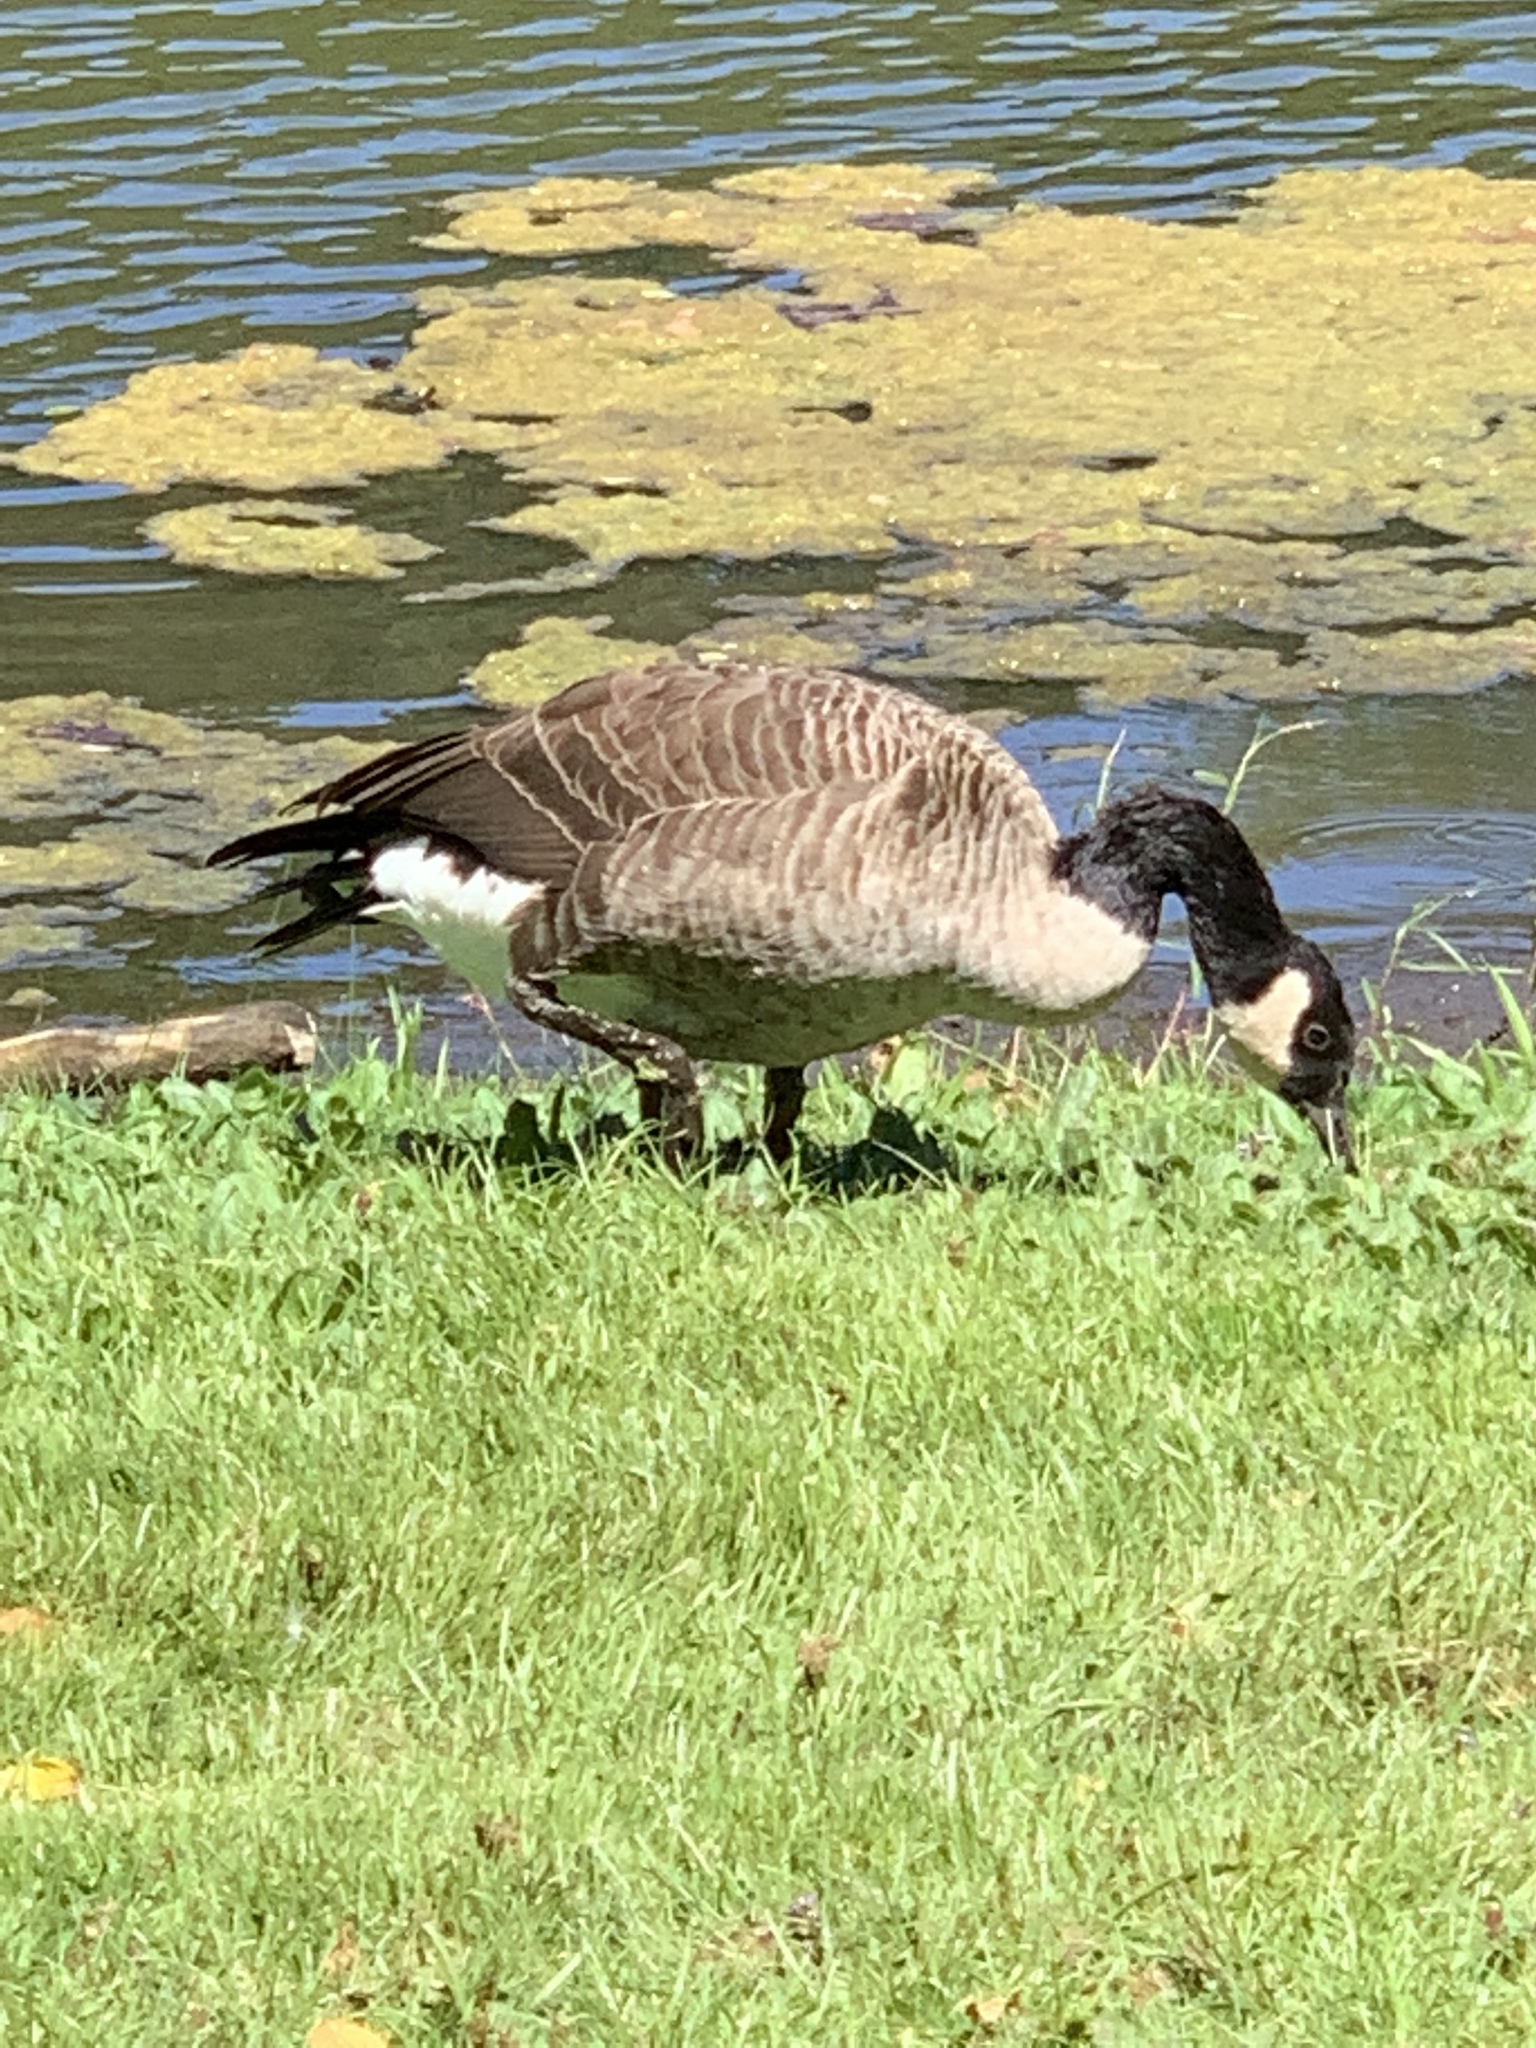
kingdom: Animalia
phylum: Chordata
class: Aves
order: Anseriformes
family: Anatidae
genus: Branta
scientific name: Branta canadensis
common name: Canada goose
